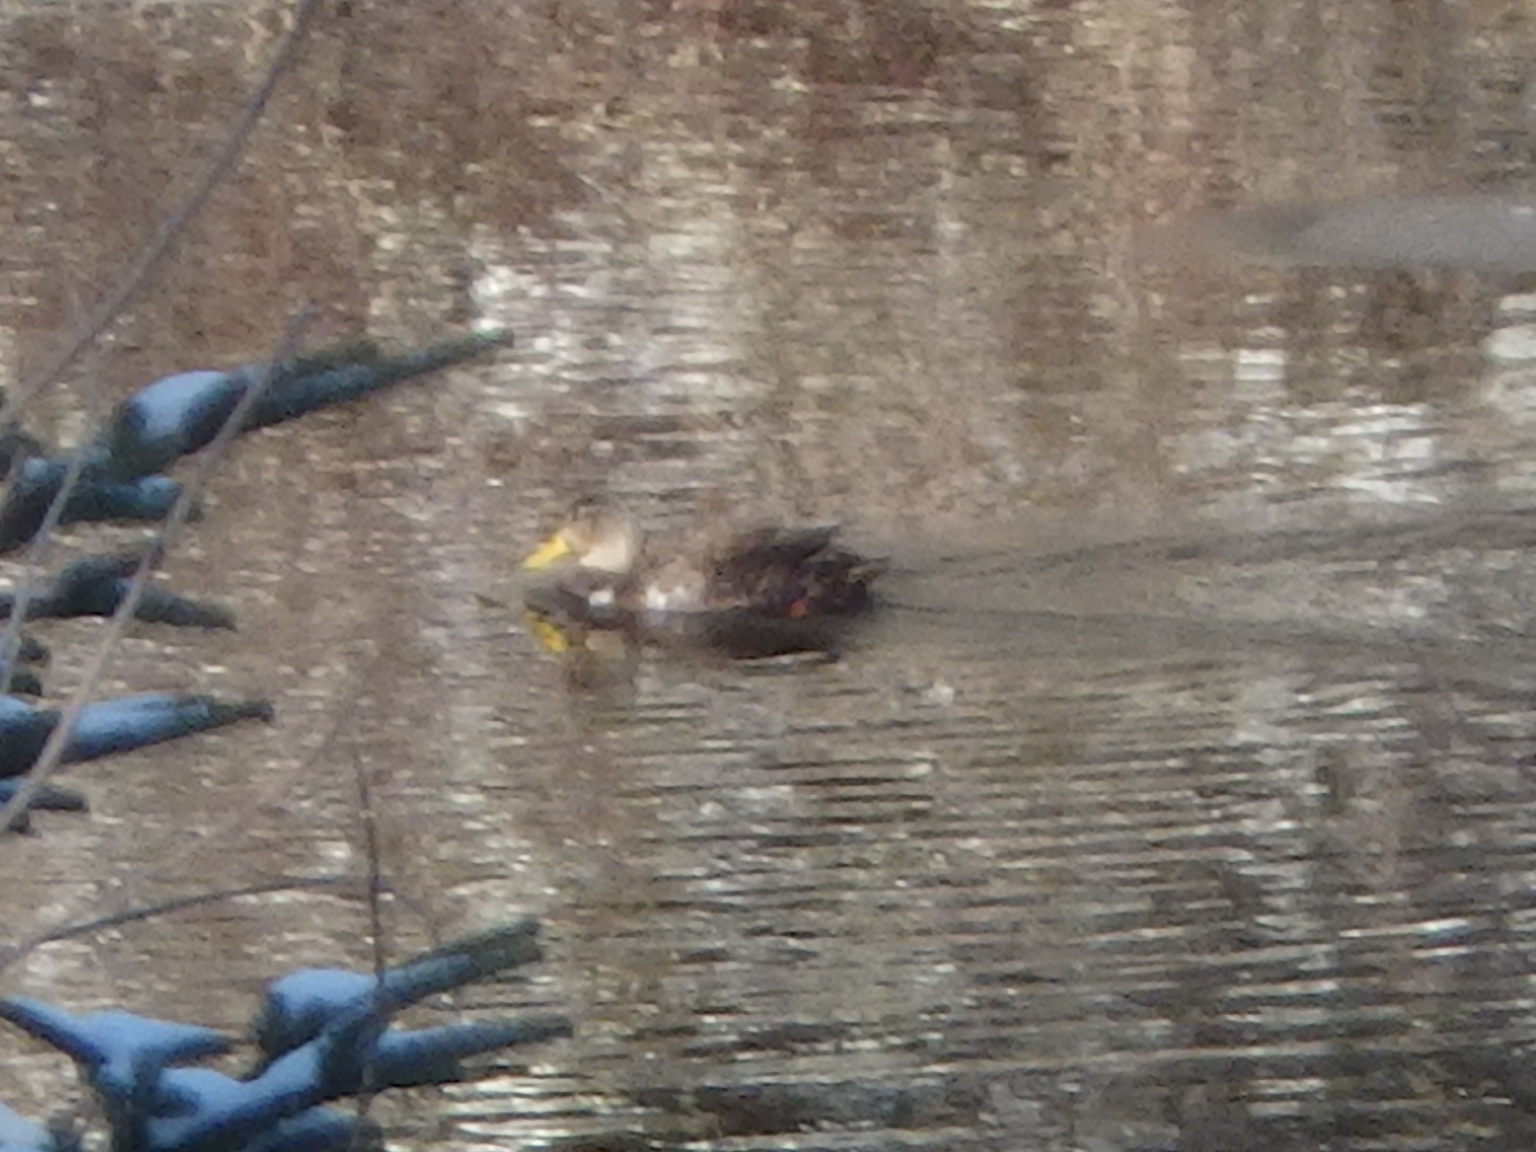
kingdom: Animalia
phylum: Chordata
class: Aves
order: Anseriformes
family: Anatidae
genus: Anas
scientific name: Anas rubripes
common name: American black duck
